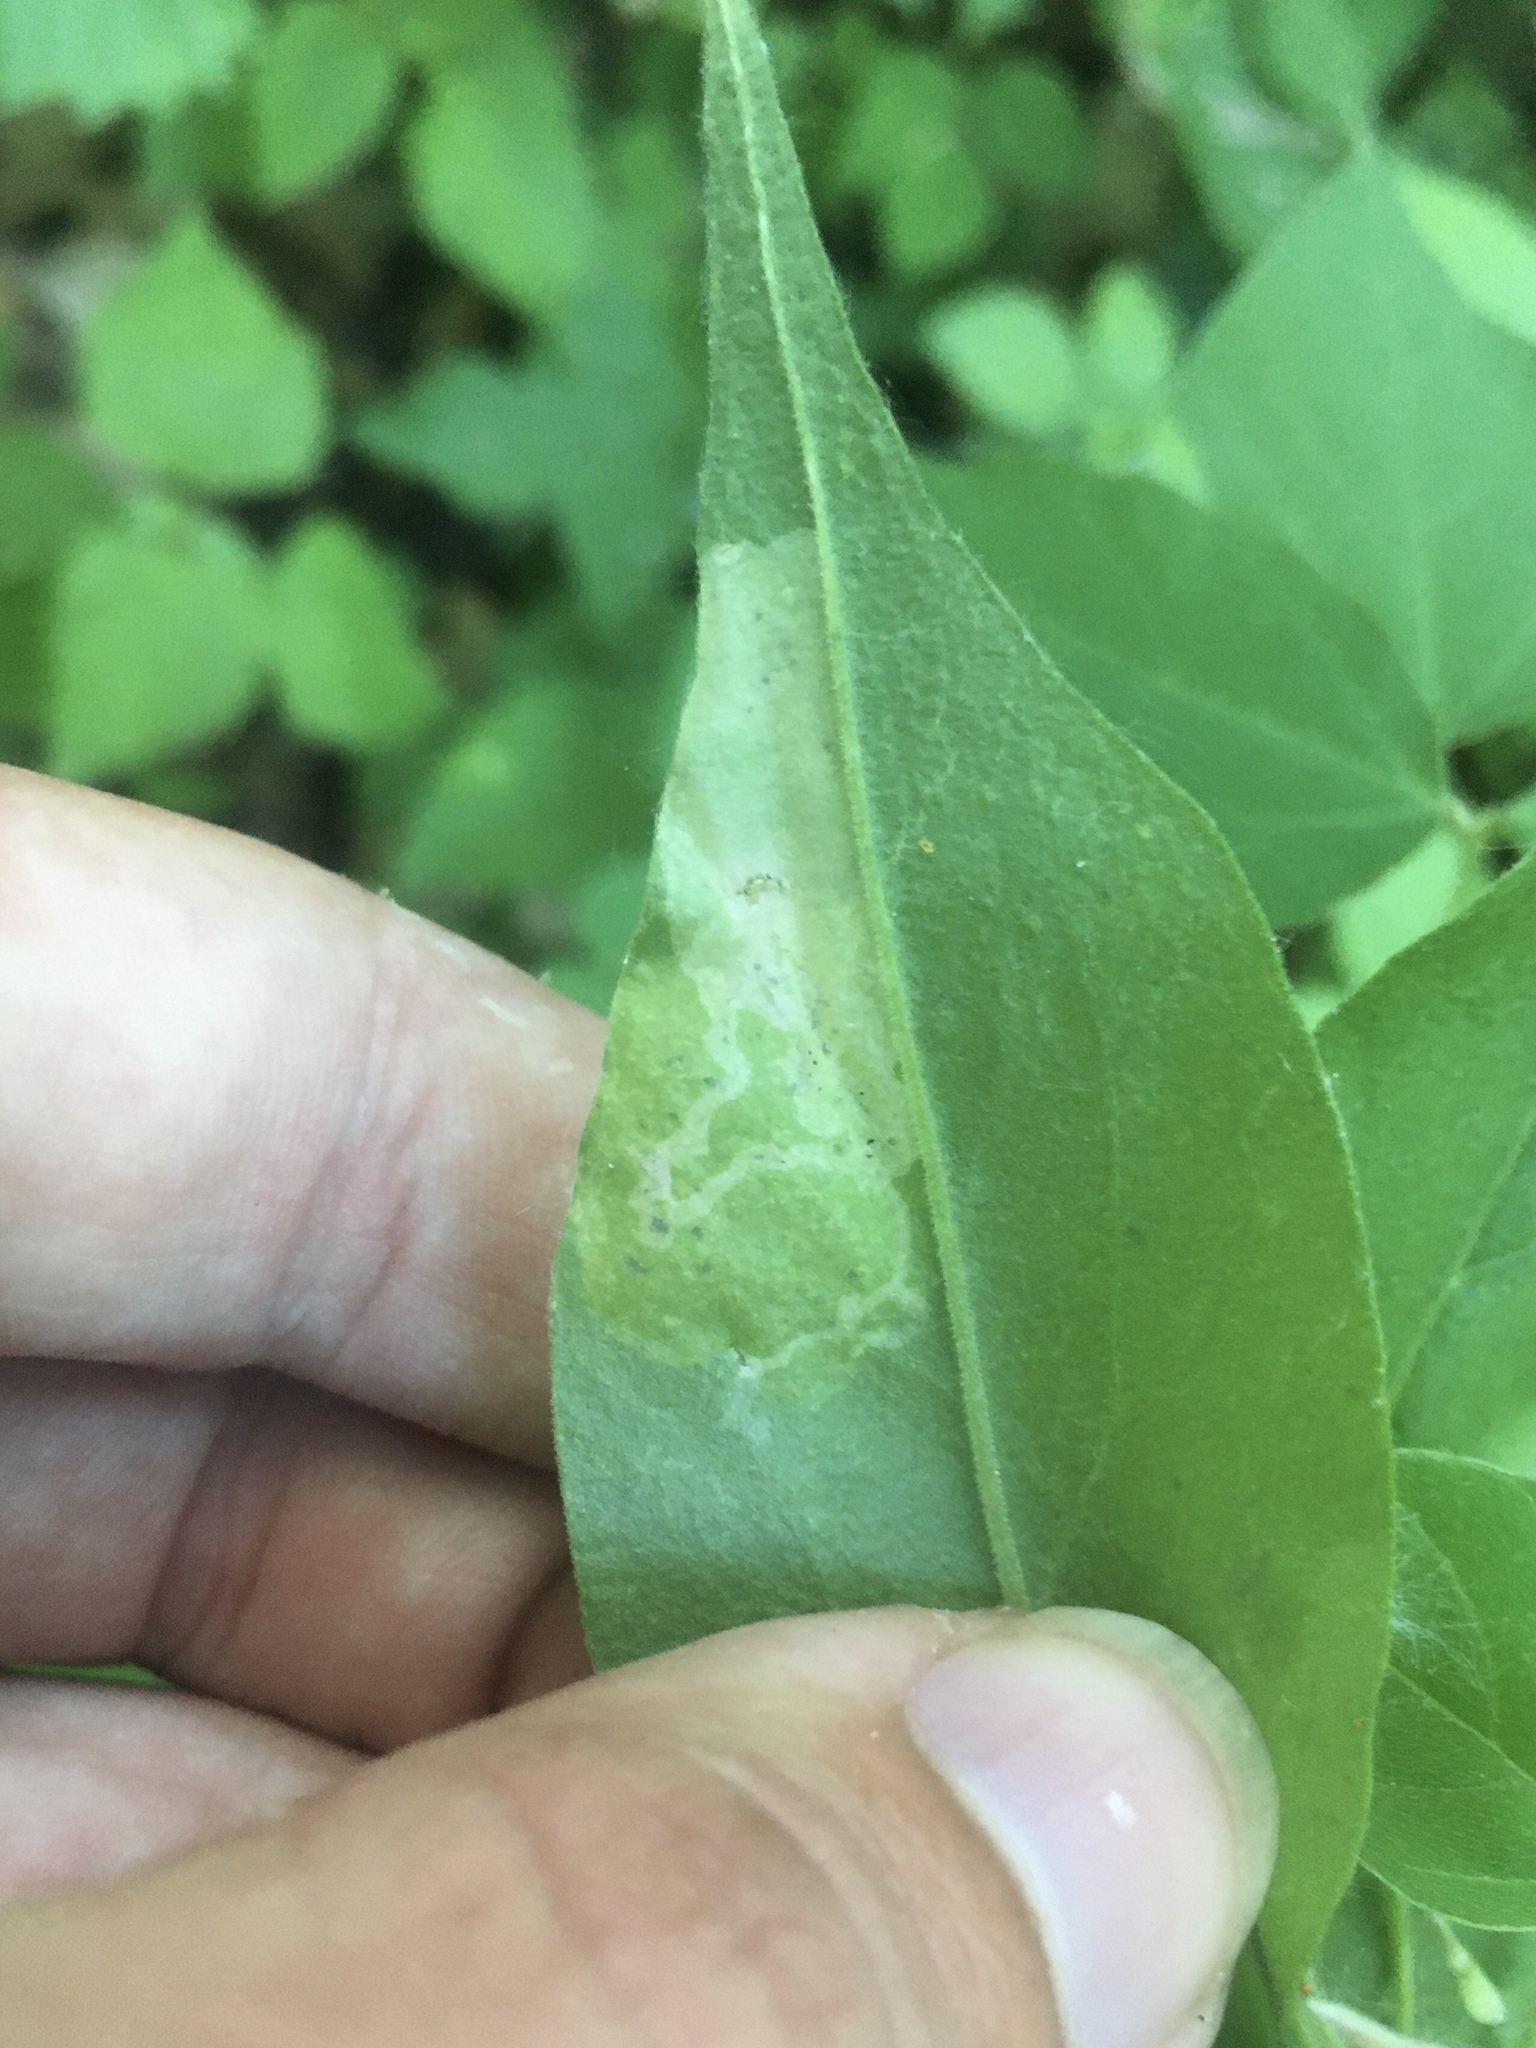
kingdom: Animalia
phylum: Arthropoda
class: Insecta
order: Diptera
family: Agromyzidae
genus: Amauromyza
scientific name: Amauromyza flavifrons
